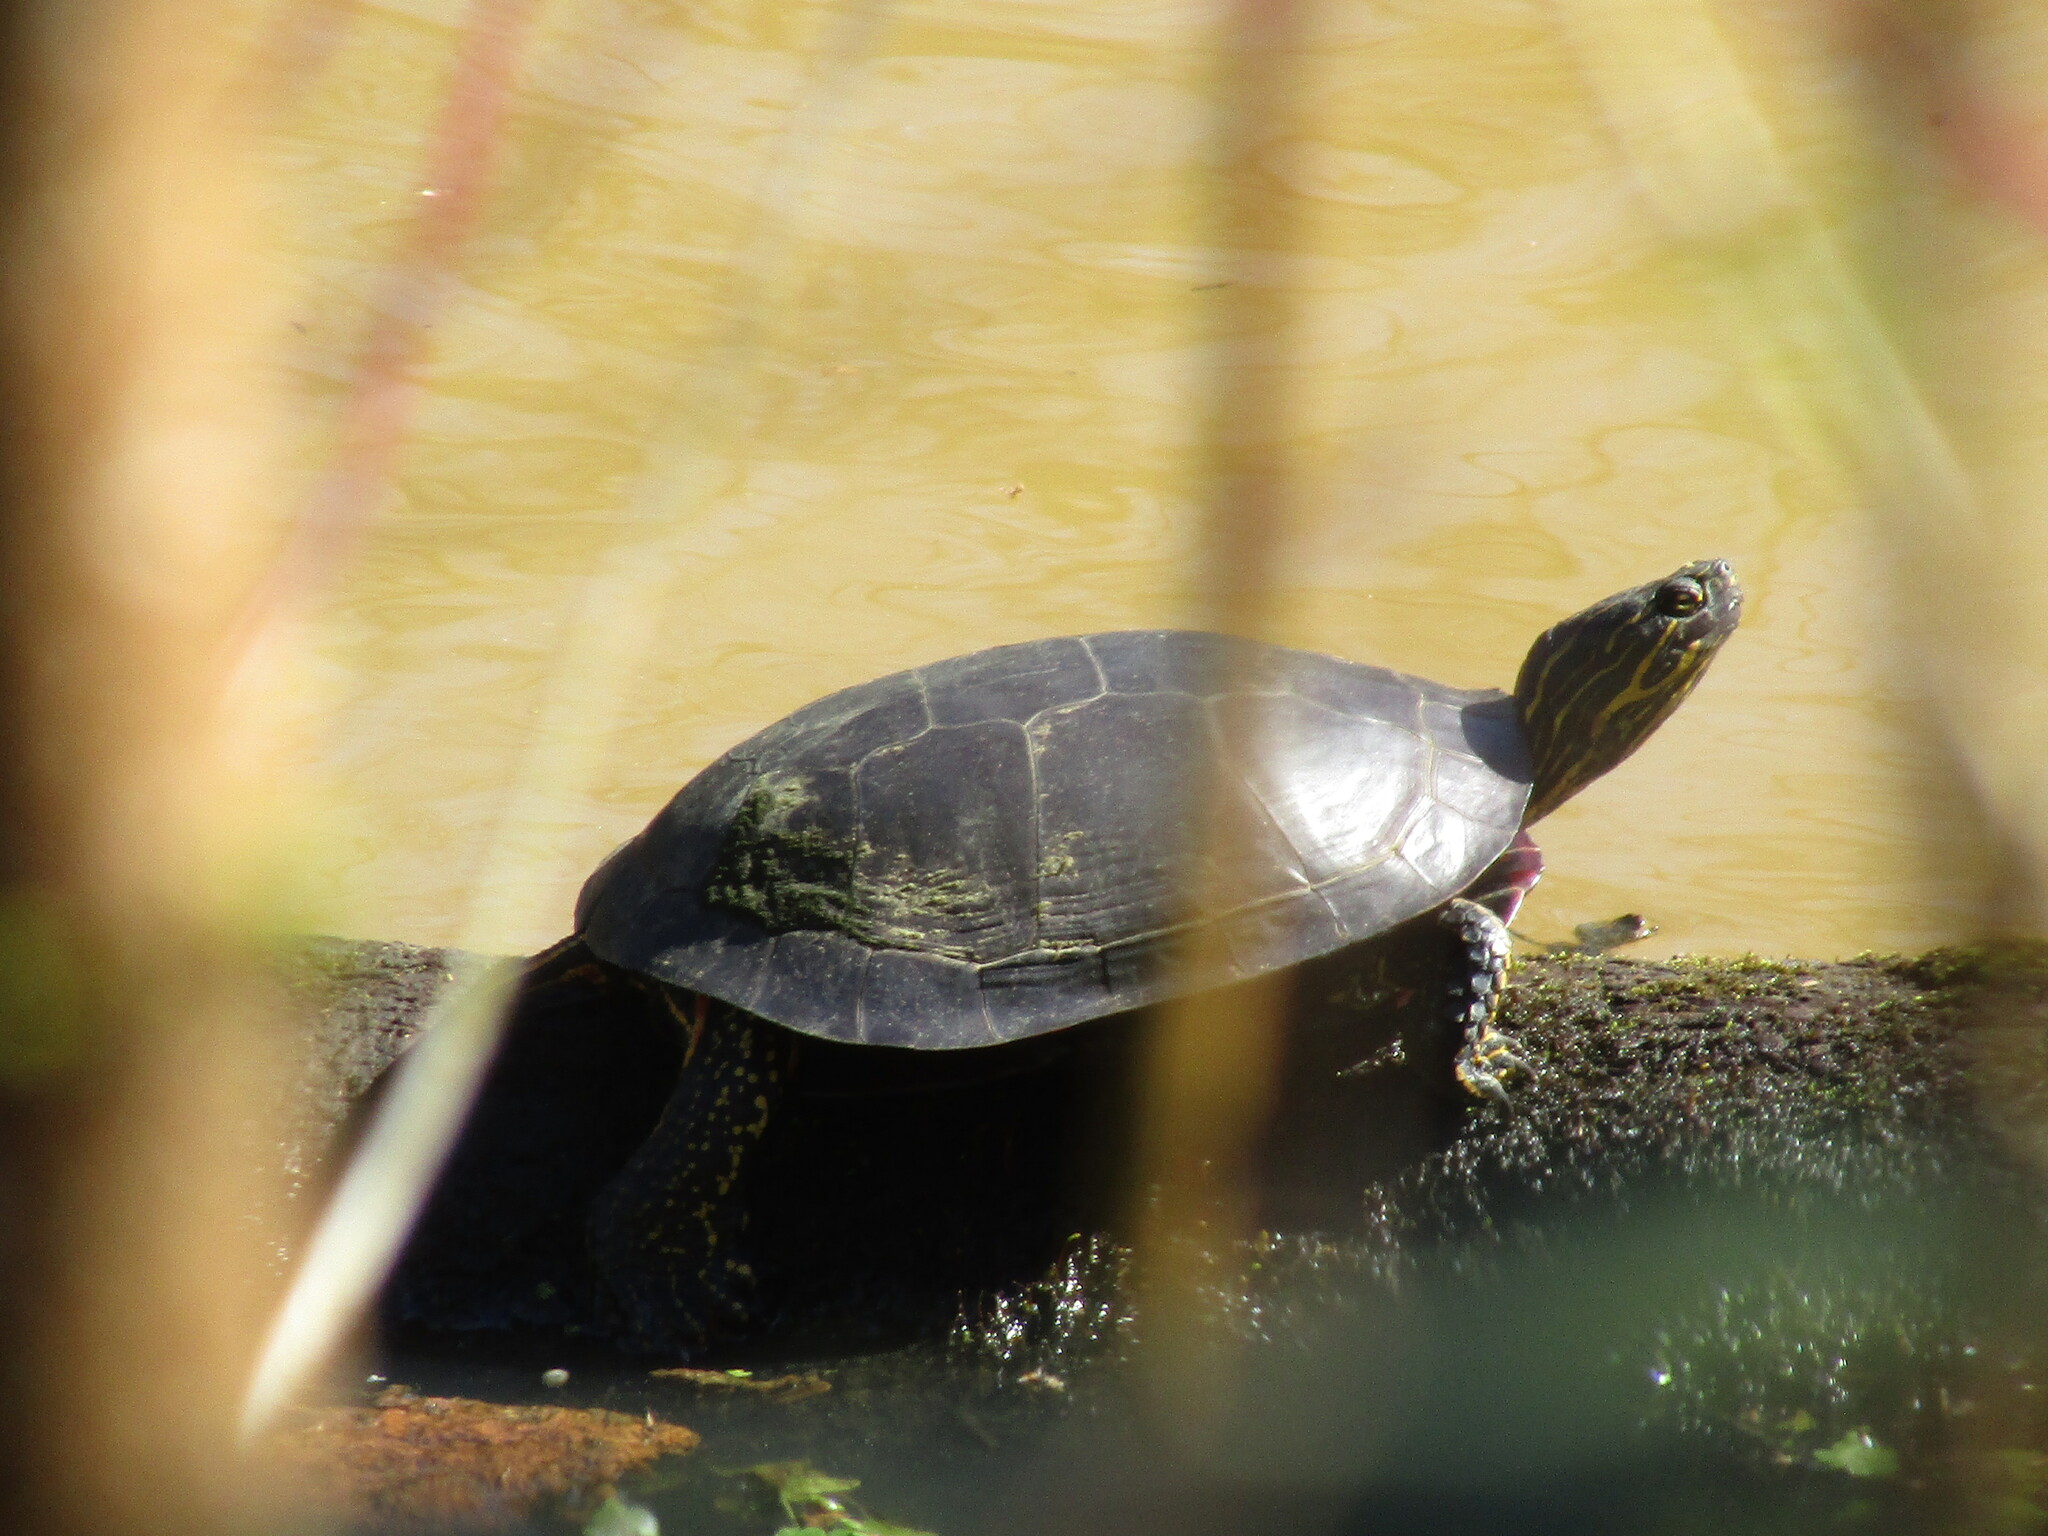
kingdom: Animalia
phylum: Chordata
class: Testudines
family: Emydidae
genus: Chrysemys
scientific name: Chrysemys picta
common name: Painted turtle
